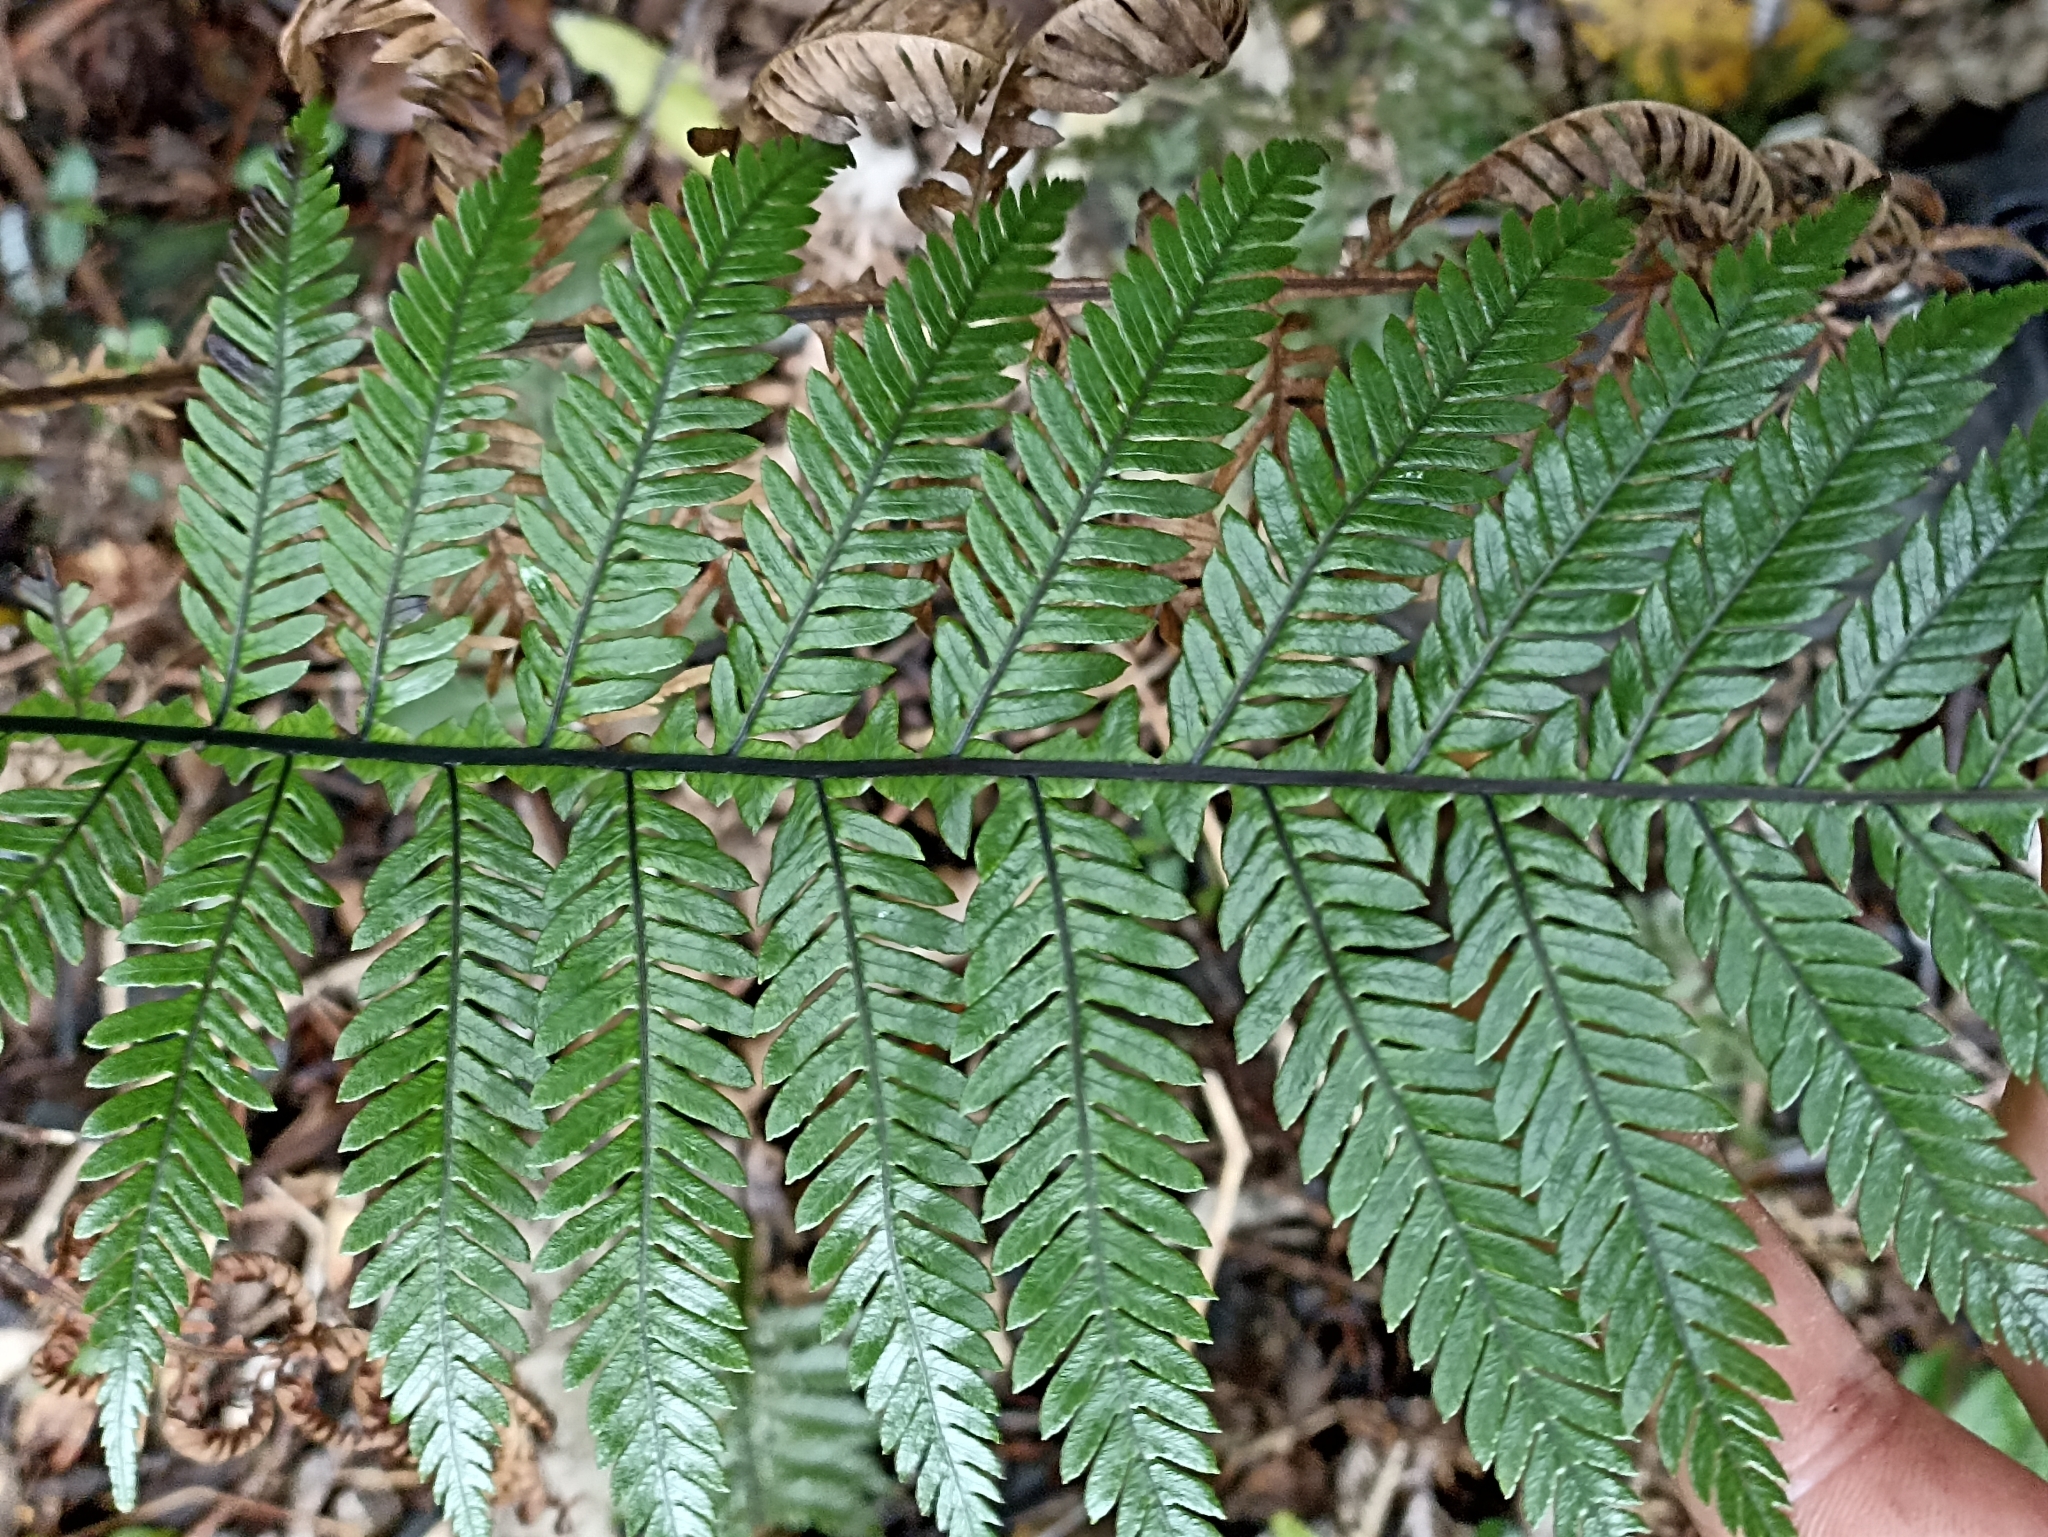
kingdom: Plantae
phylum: Tracheophyta
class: Polypodiopsida
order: Polypodiales
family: Blechnaceae
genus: Diploblechnum
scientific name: Diploblechnum fraseri
